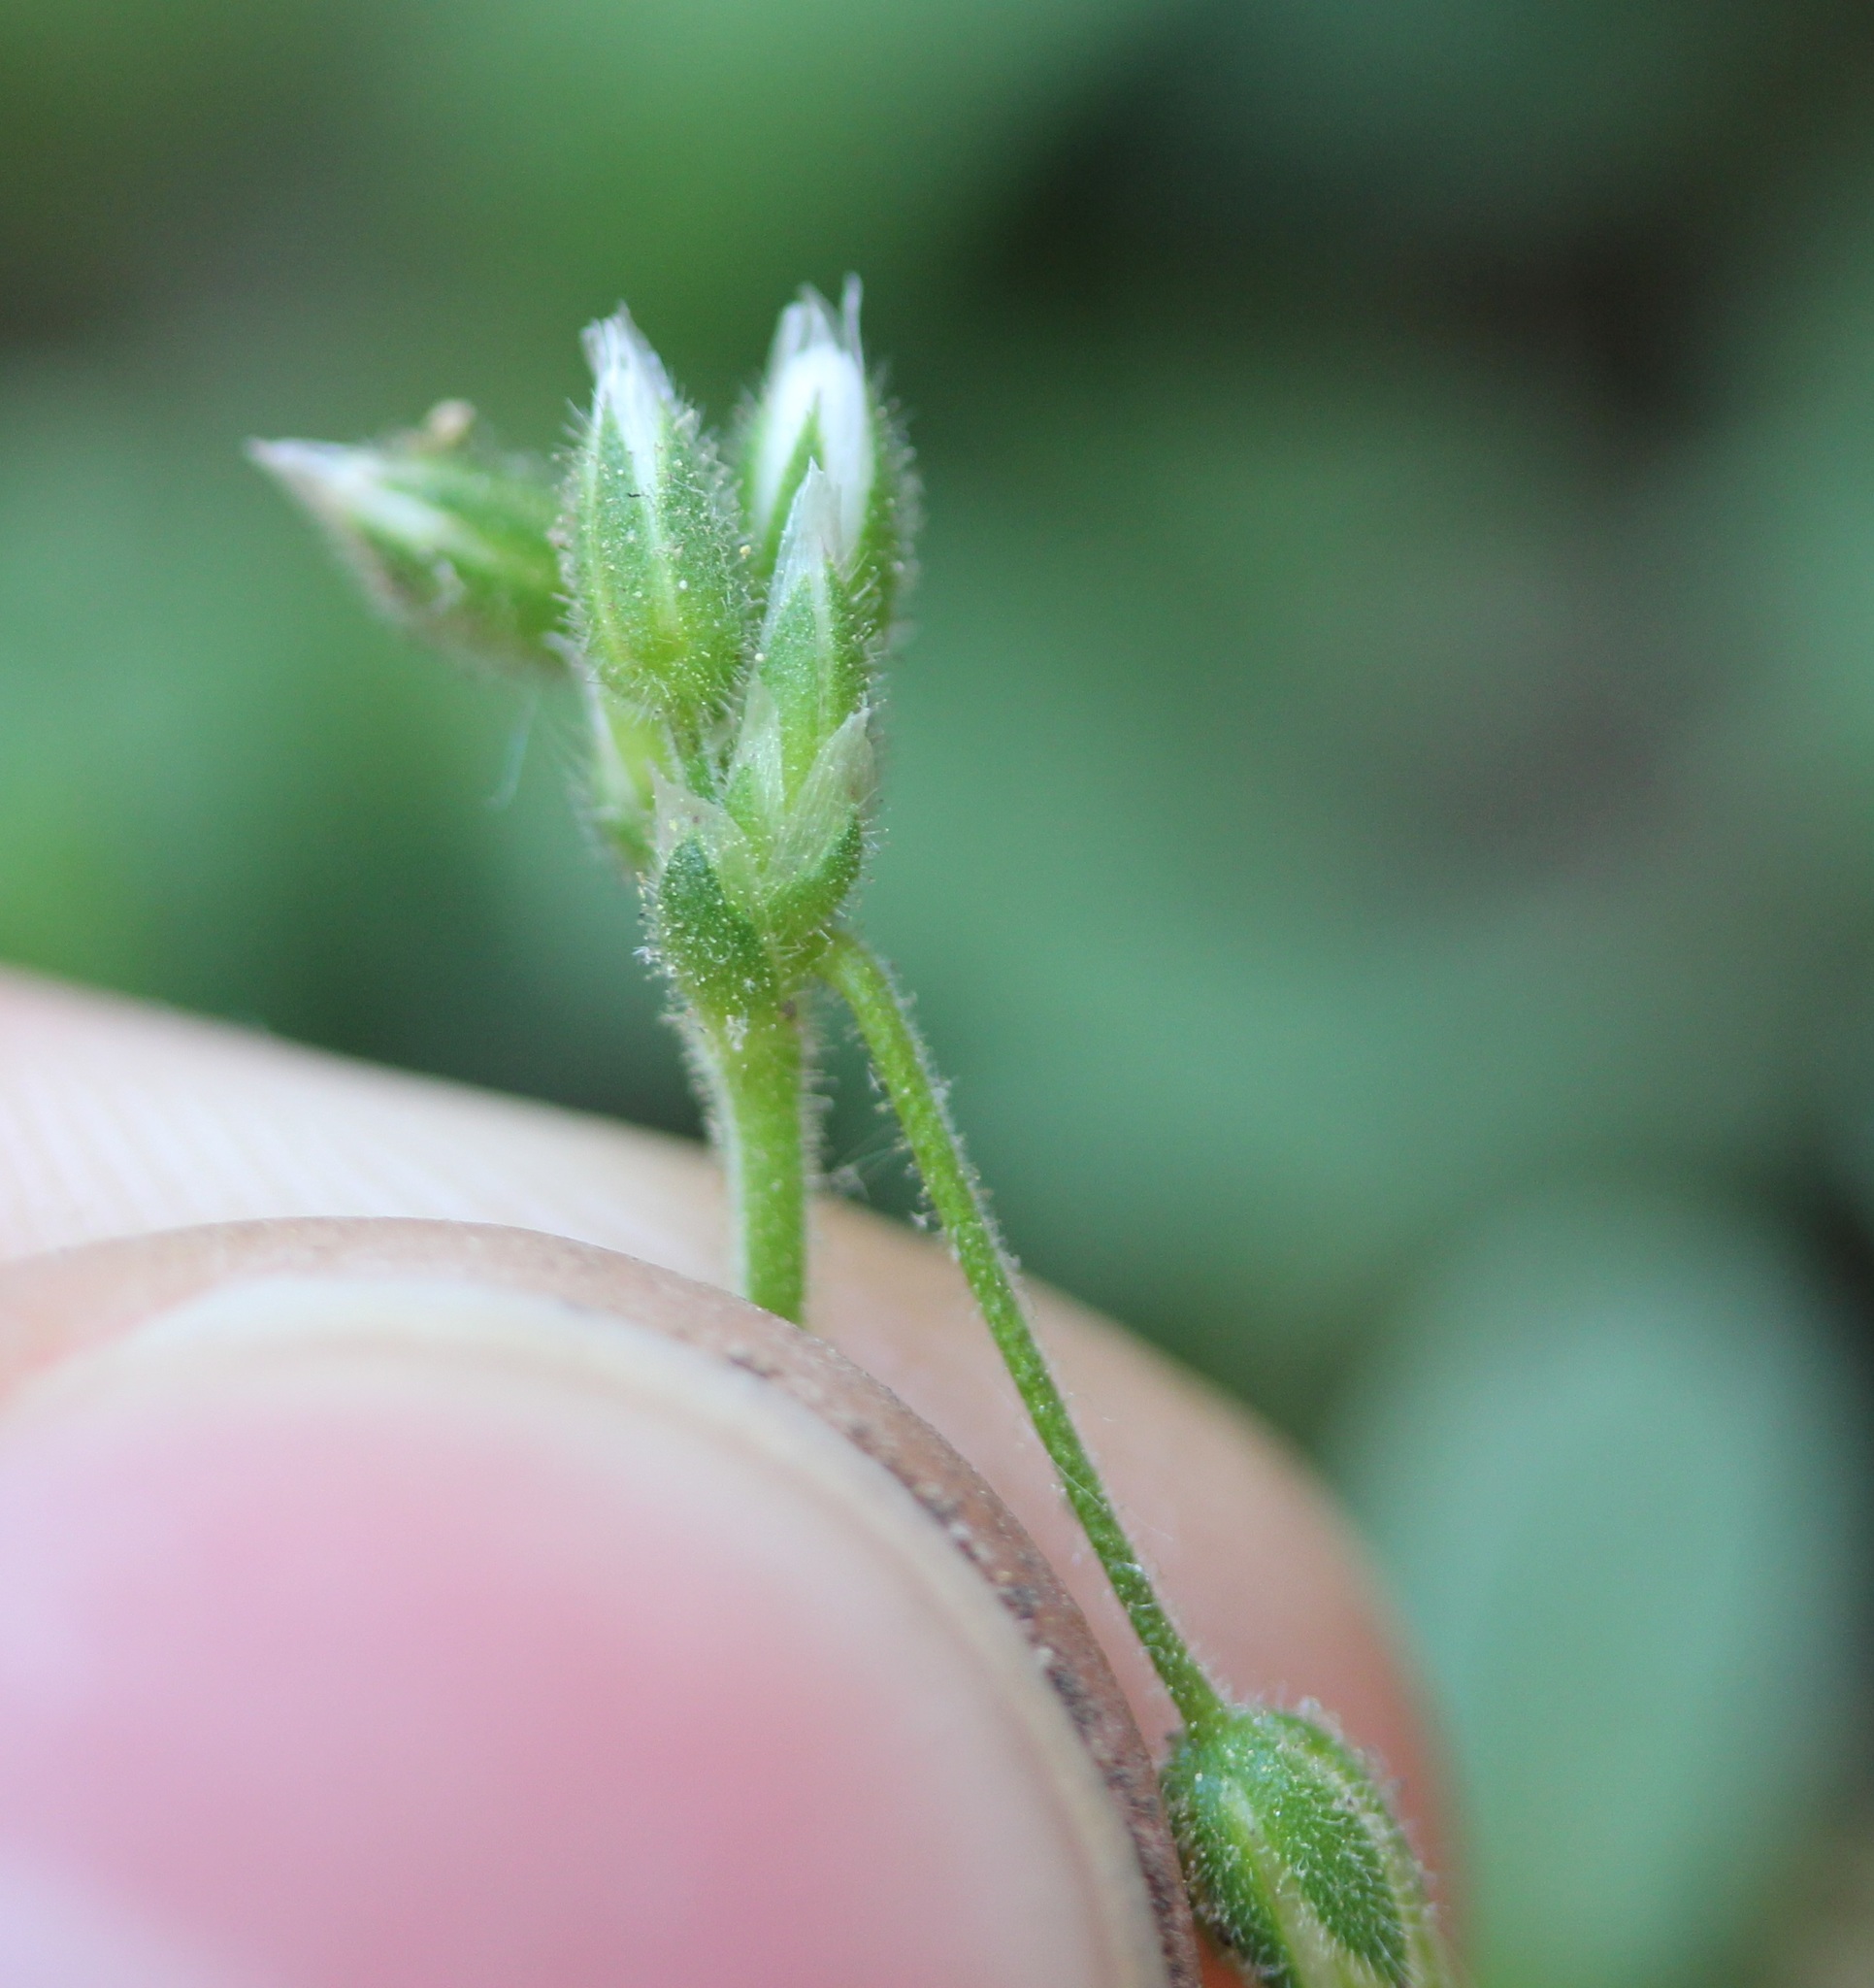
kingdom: Plantae
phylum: Tracheophyta
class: Magnoliopsida
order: Caryophyllales
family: Caryophyllaceae
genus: Cerastium
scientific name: Cerastium semidecandrum
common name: Little mouse-ear
